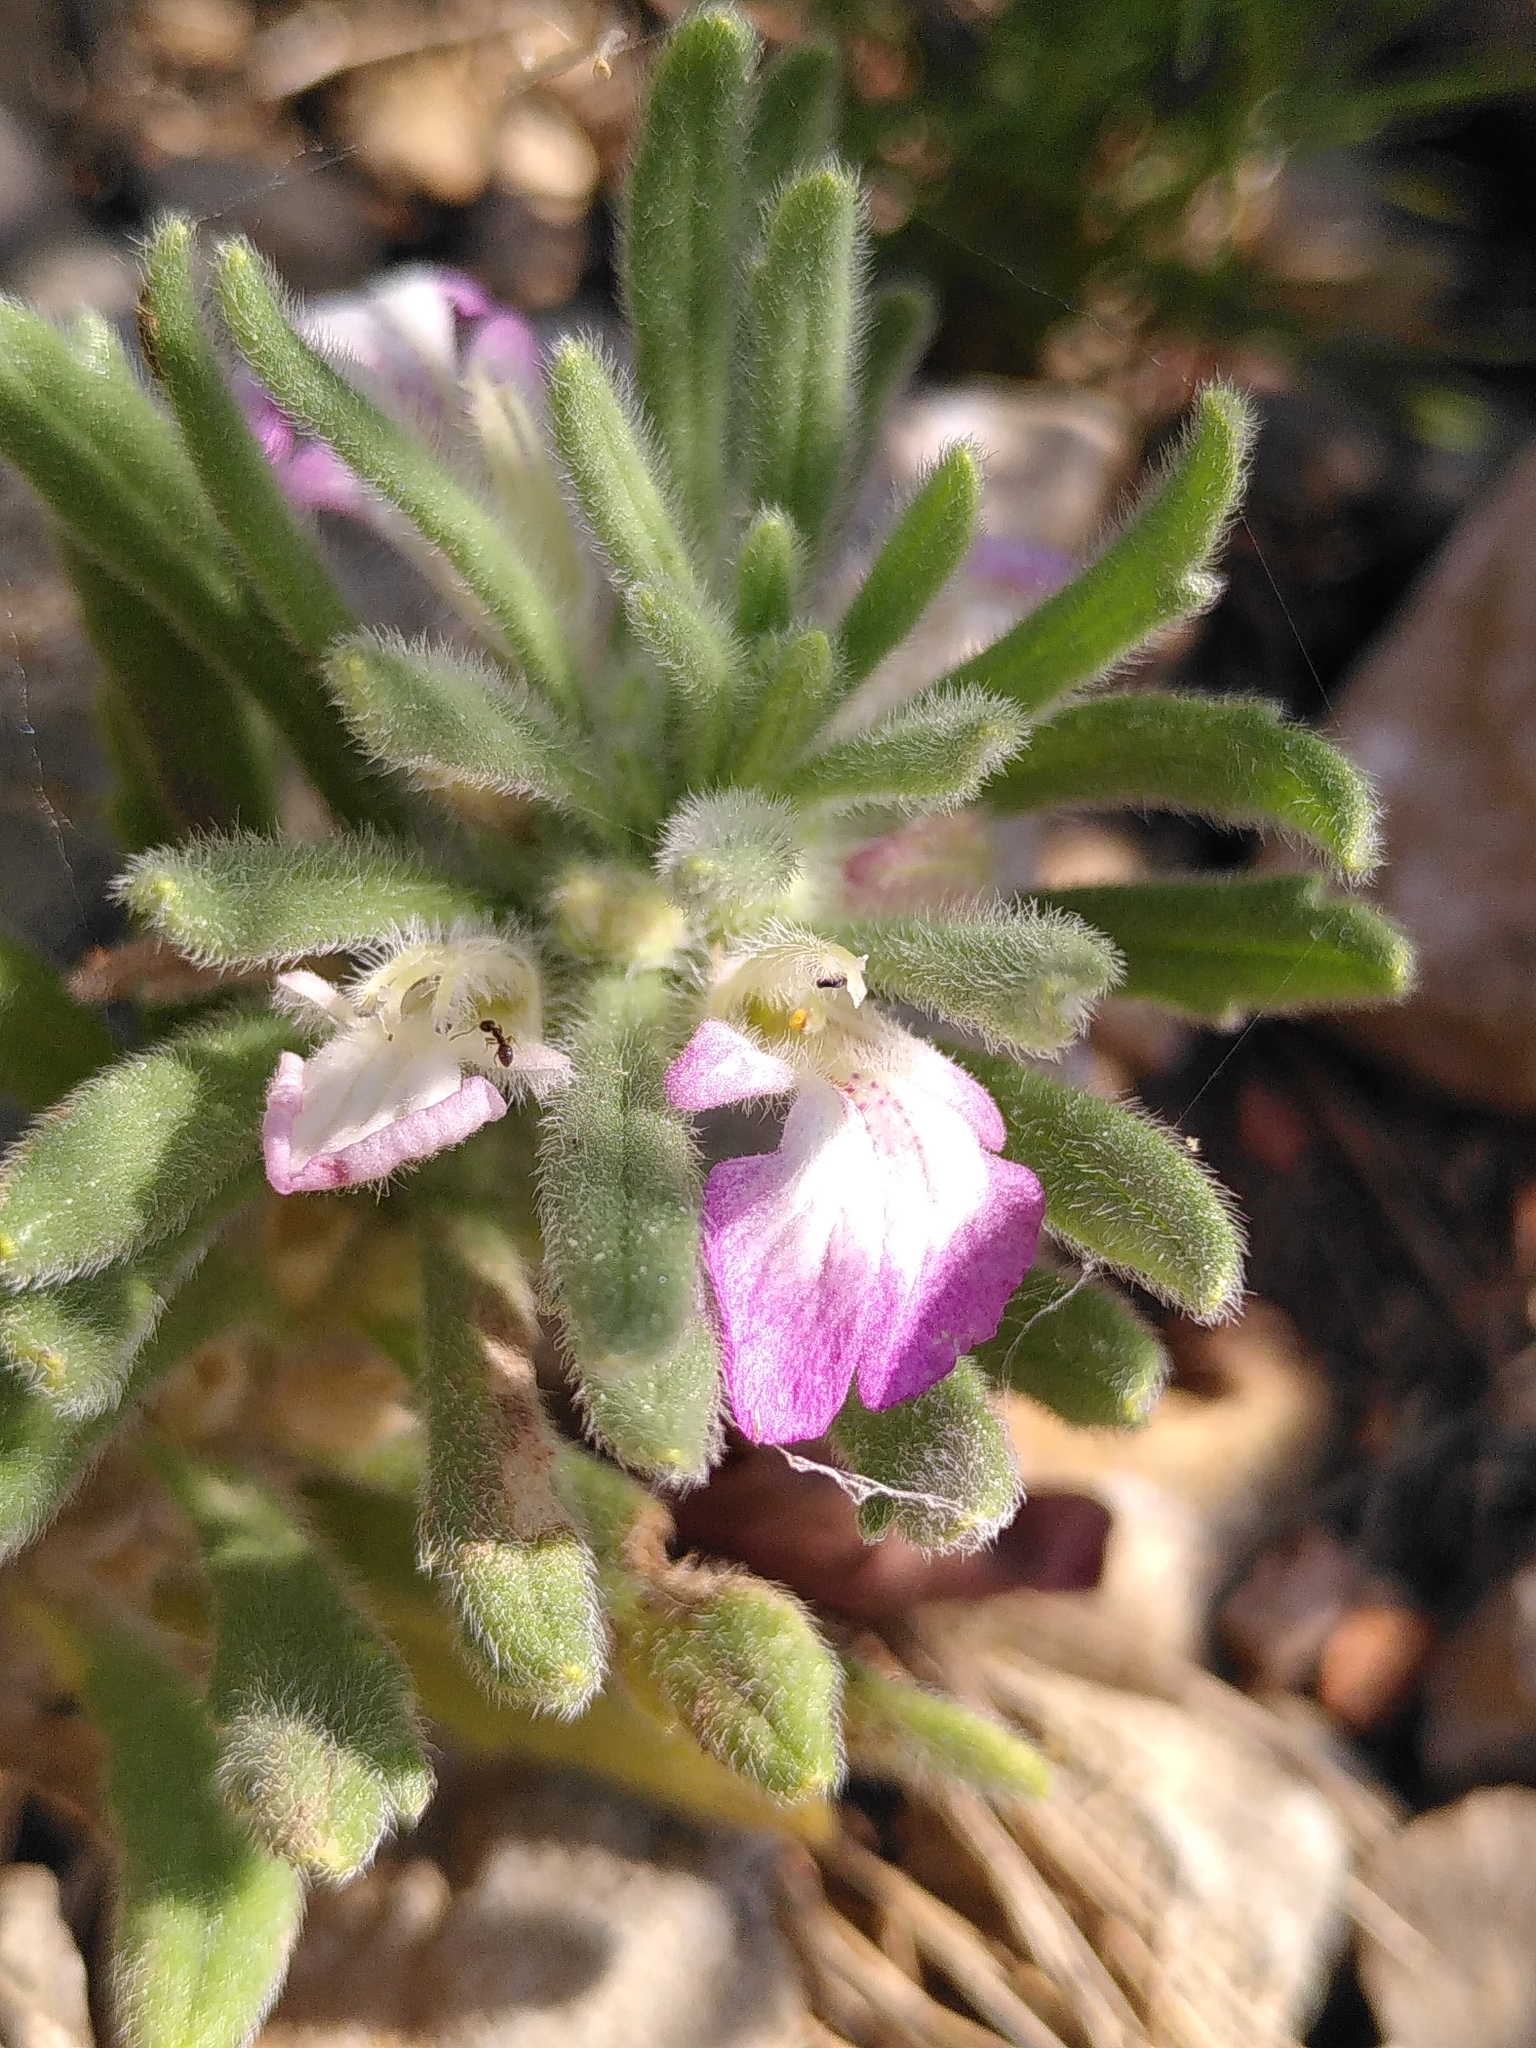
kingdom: Plantae
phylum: Tracheophyta
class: Magnoliopsida
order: Lamiales
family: Lamiaceae
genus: Ajuga
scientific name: Ajuga iva
